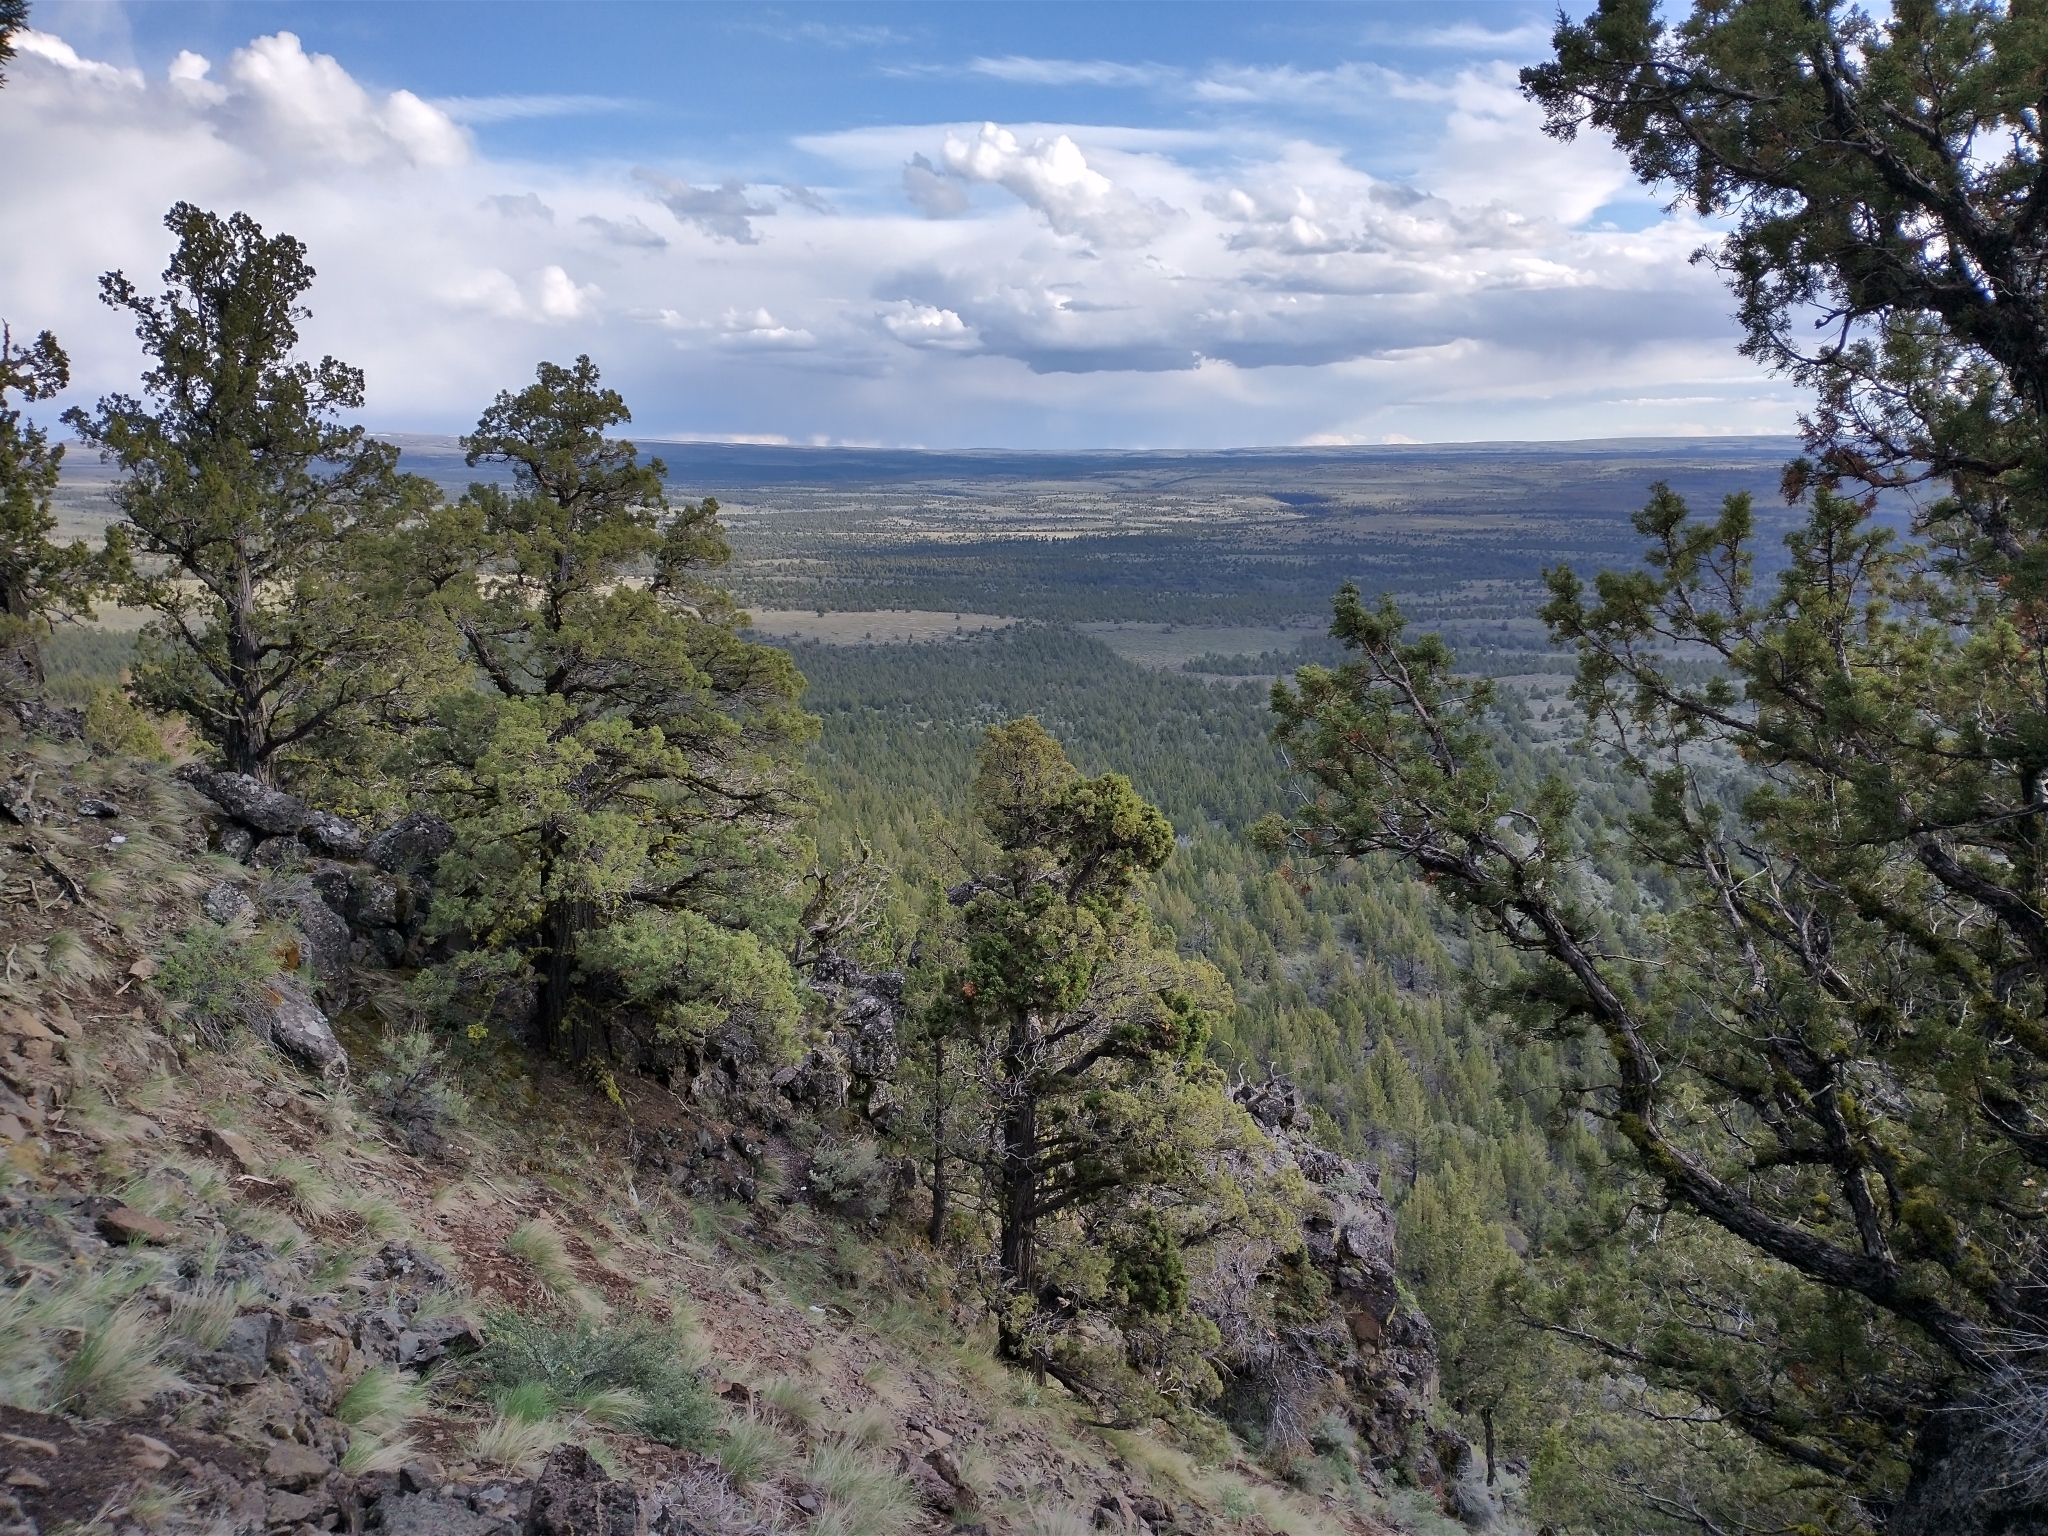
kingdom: Plantae
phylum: Tracheophyta
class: Pinopsida
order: Pinales
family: Cupressaceae
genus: Juniperus
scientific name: Juniperus occidentalis
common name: Western juniper
